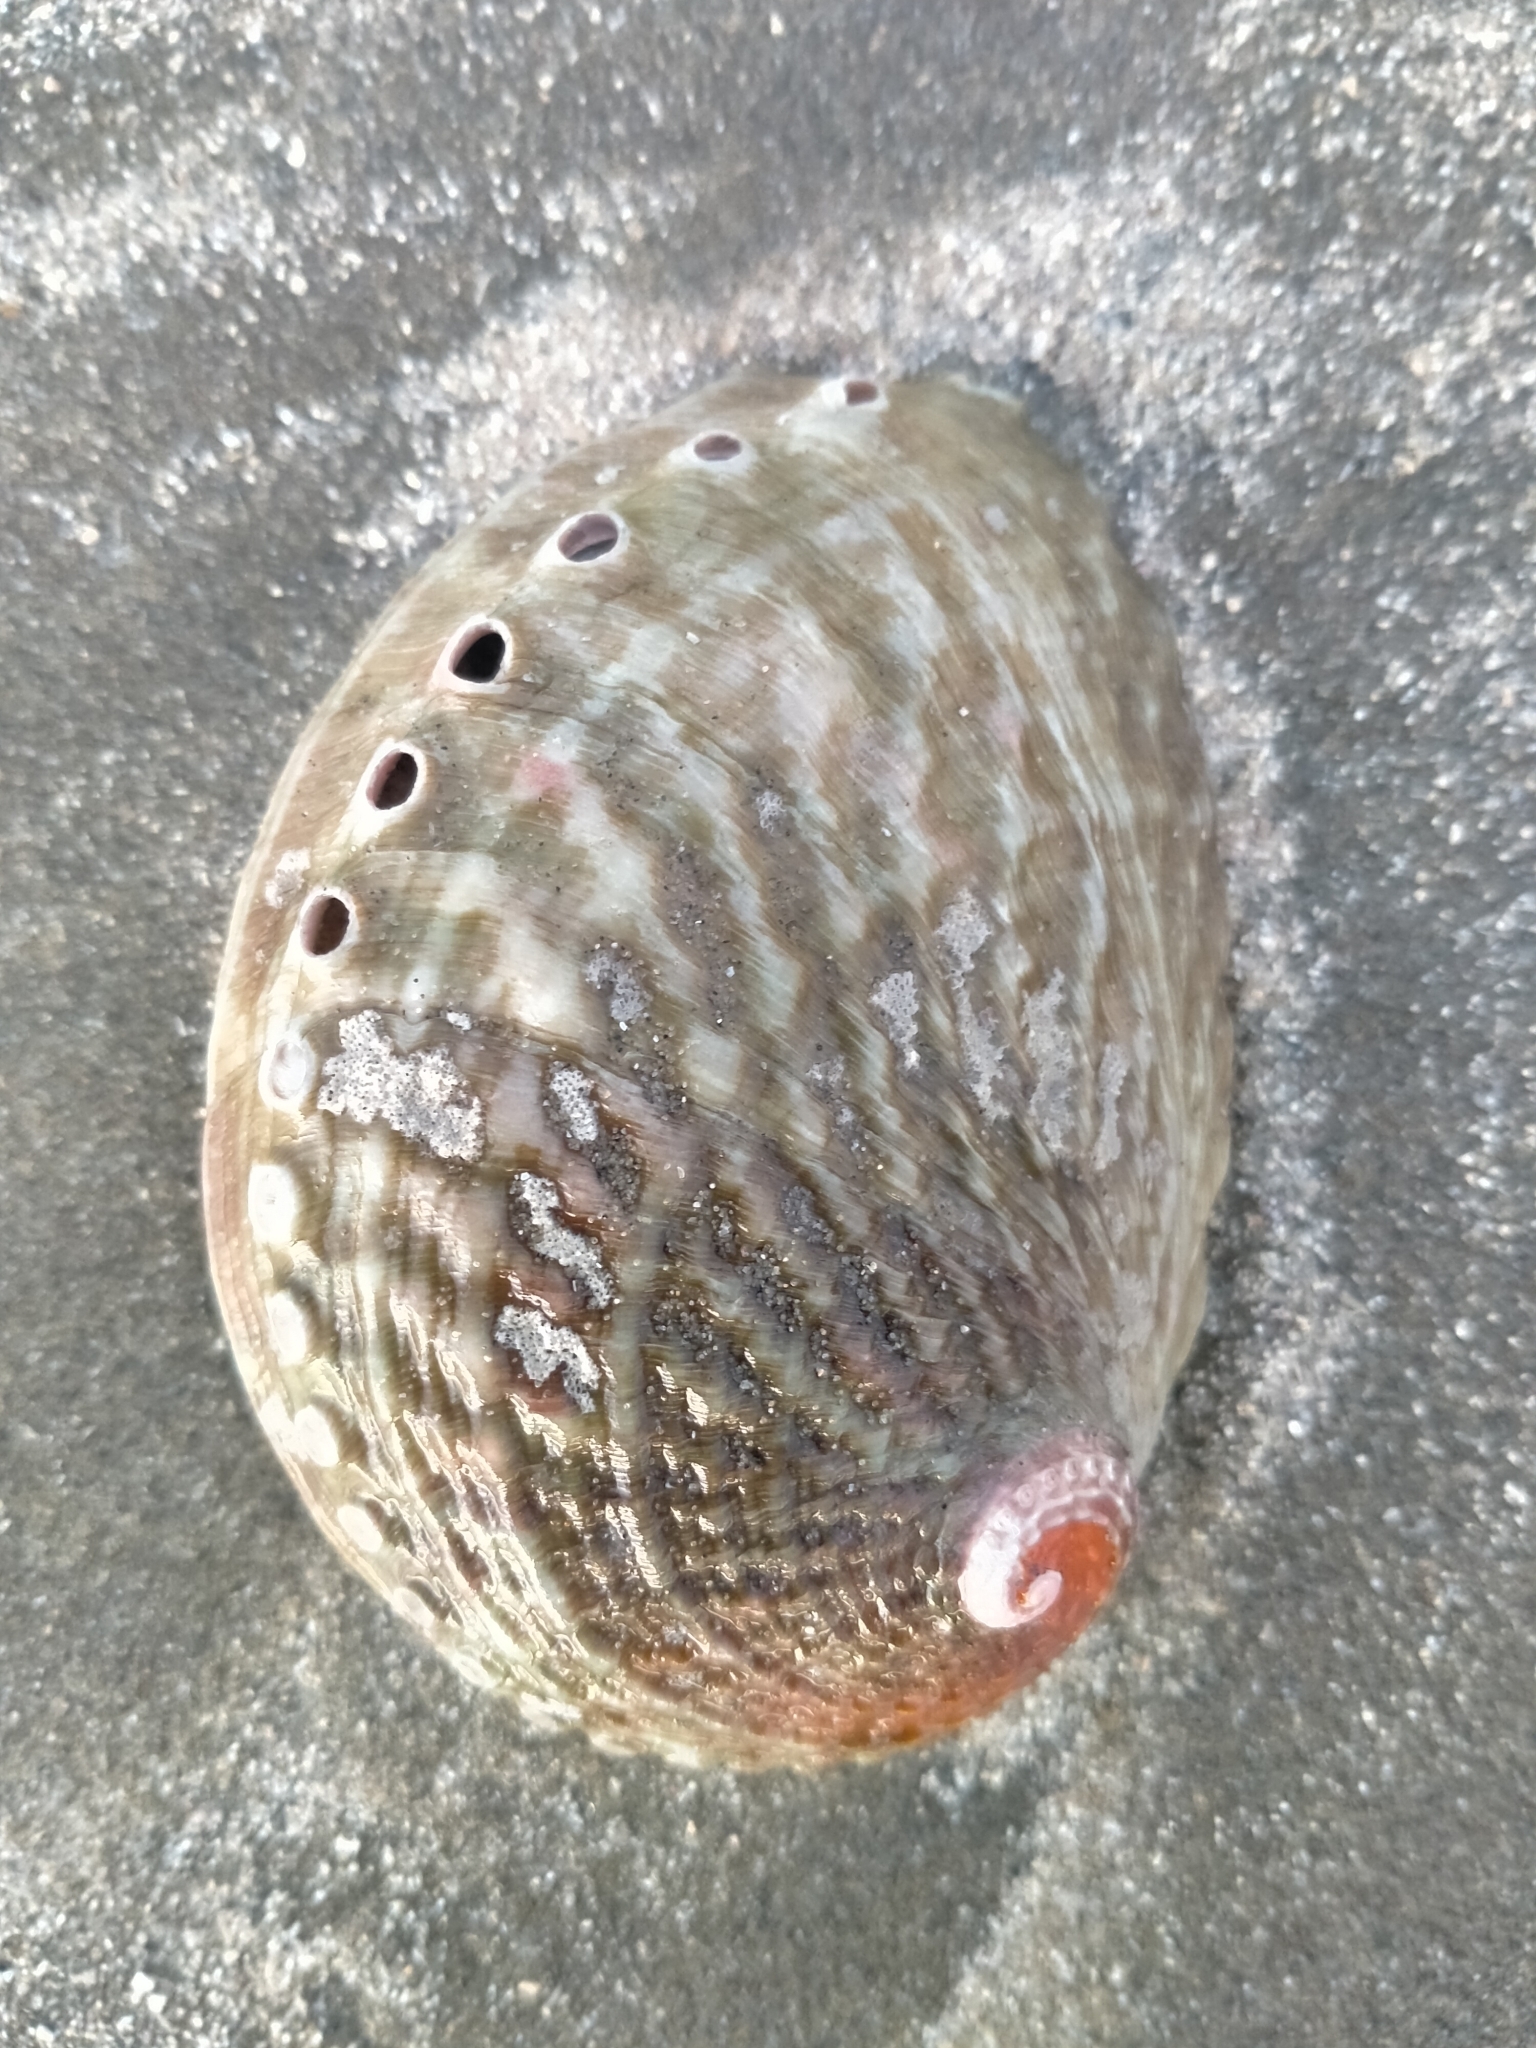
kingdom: Animalia
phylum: Mollusca
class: Gastropoda
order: Lepetellida
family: Haliotidae
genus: Haliotis
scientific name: Haliotis australis
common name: Silver abalone
